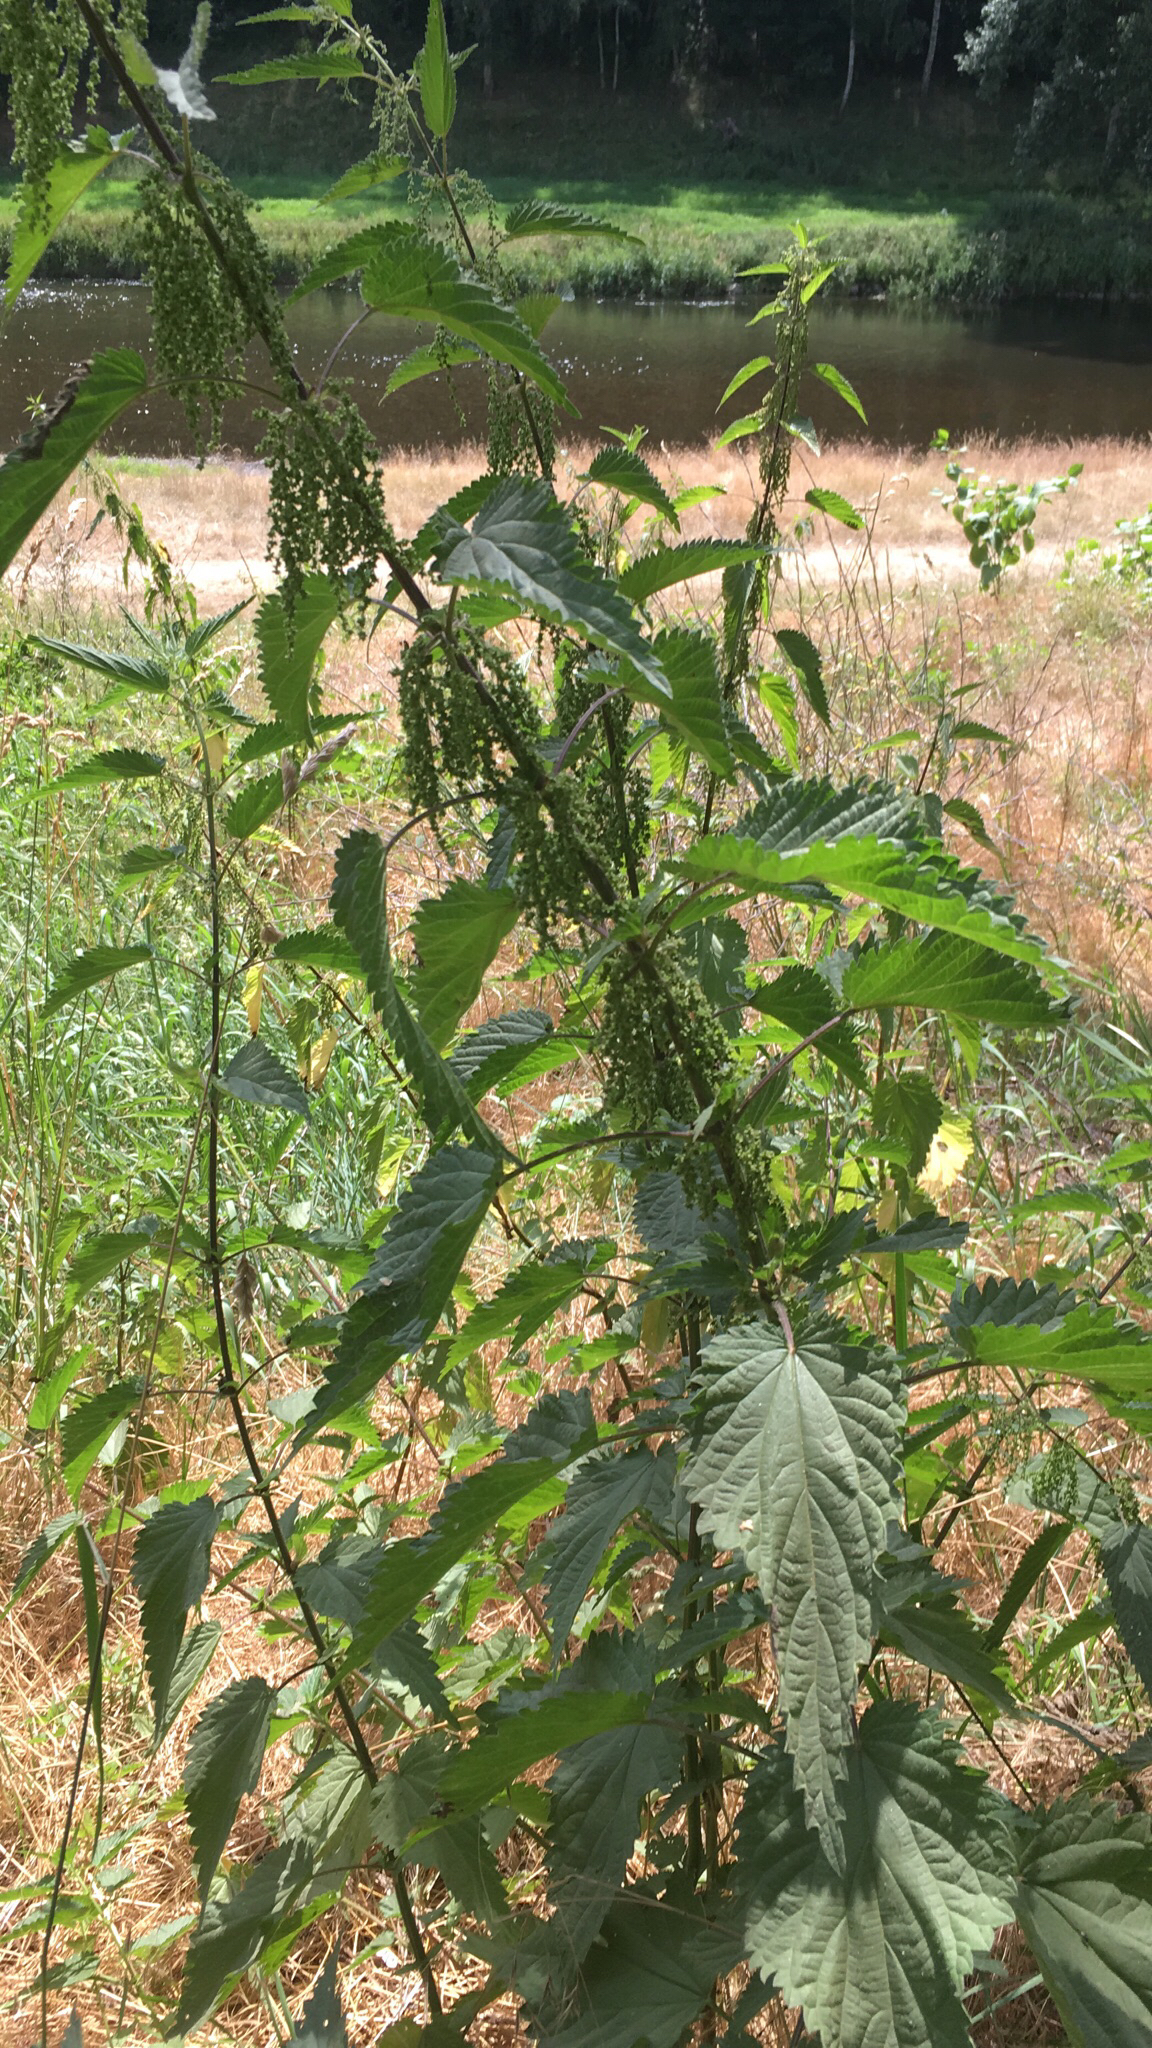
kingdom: Plantae
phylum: Tracheophyta
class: Magnoliopsida
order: Rosales
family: Urticaceae
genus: Urtica
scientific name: Urtica dioica
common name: Common nettle
